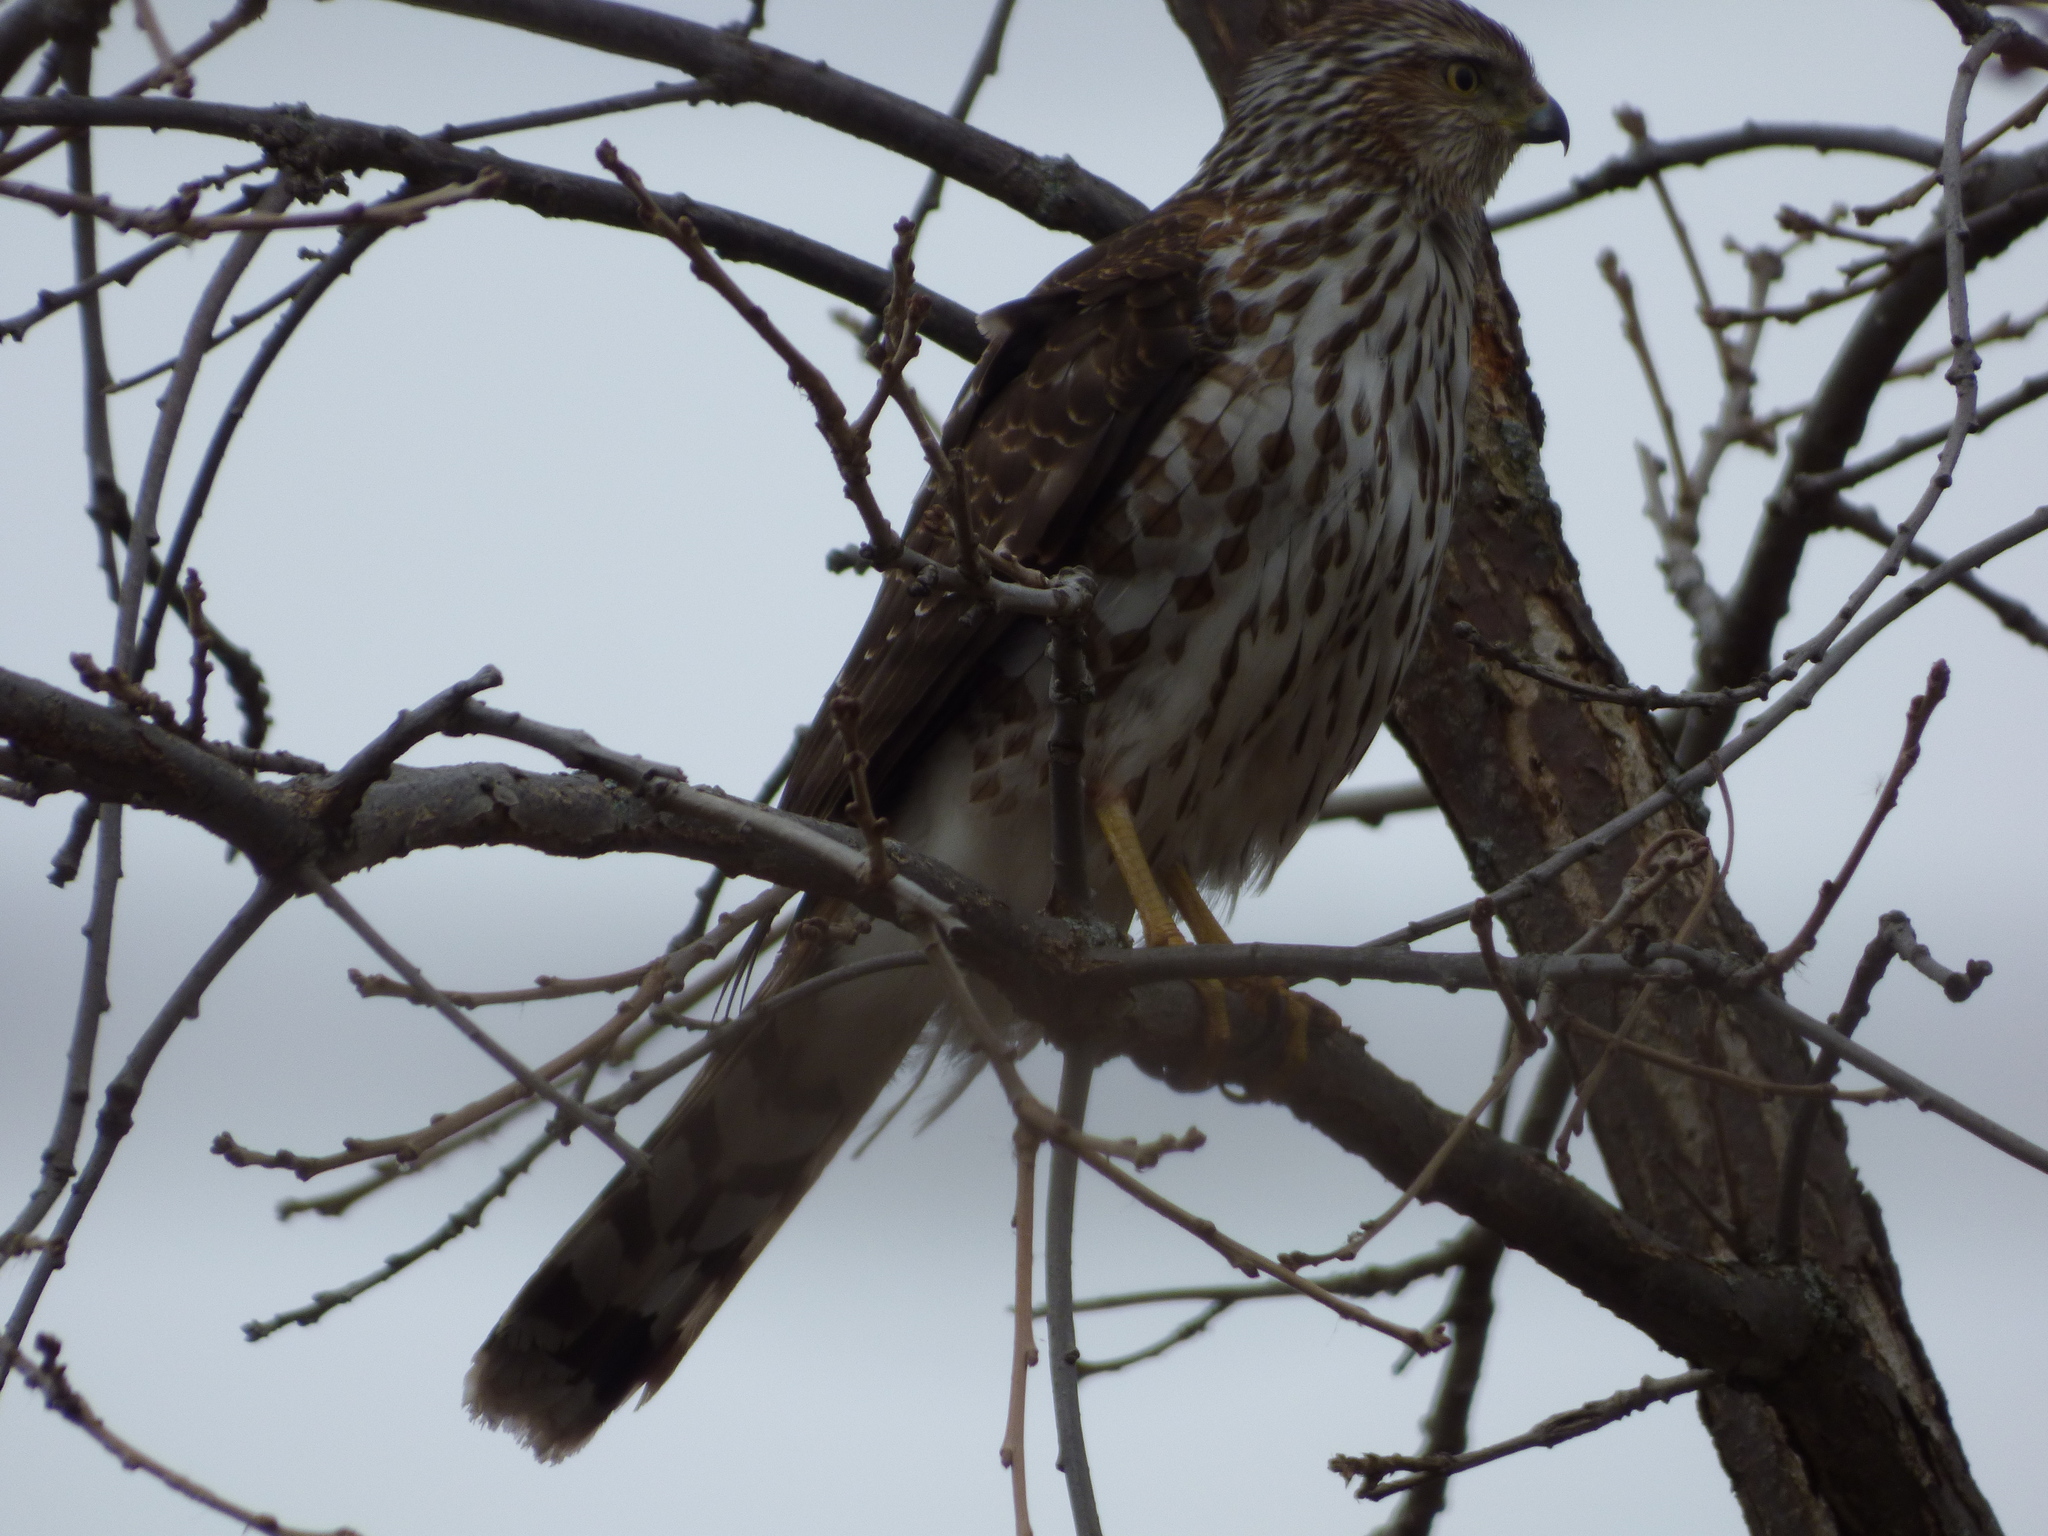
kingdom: Animalia
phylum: Chordata
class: Aves
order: Accipitriformes
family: Accipitridae
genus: Accipiter
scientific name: Accipiter cooperii
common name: Cooper's hawk
